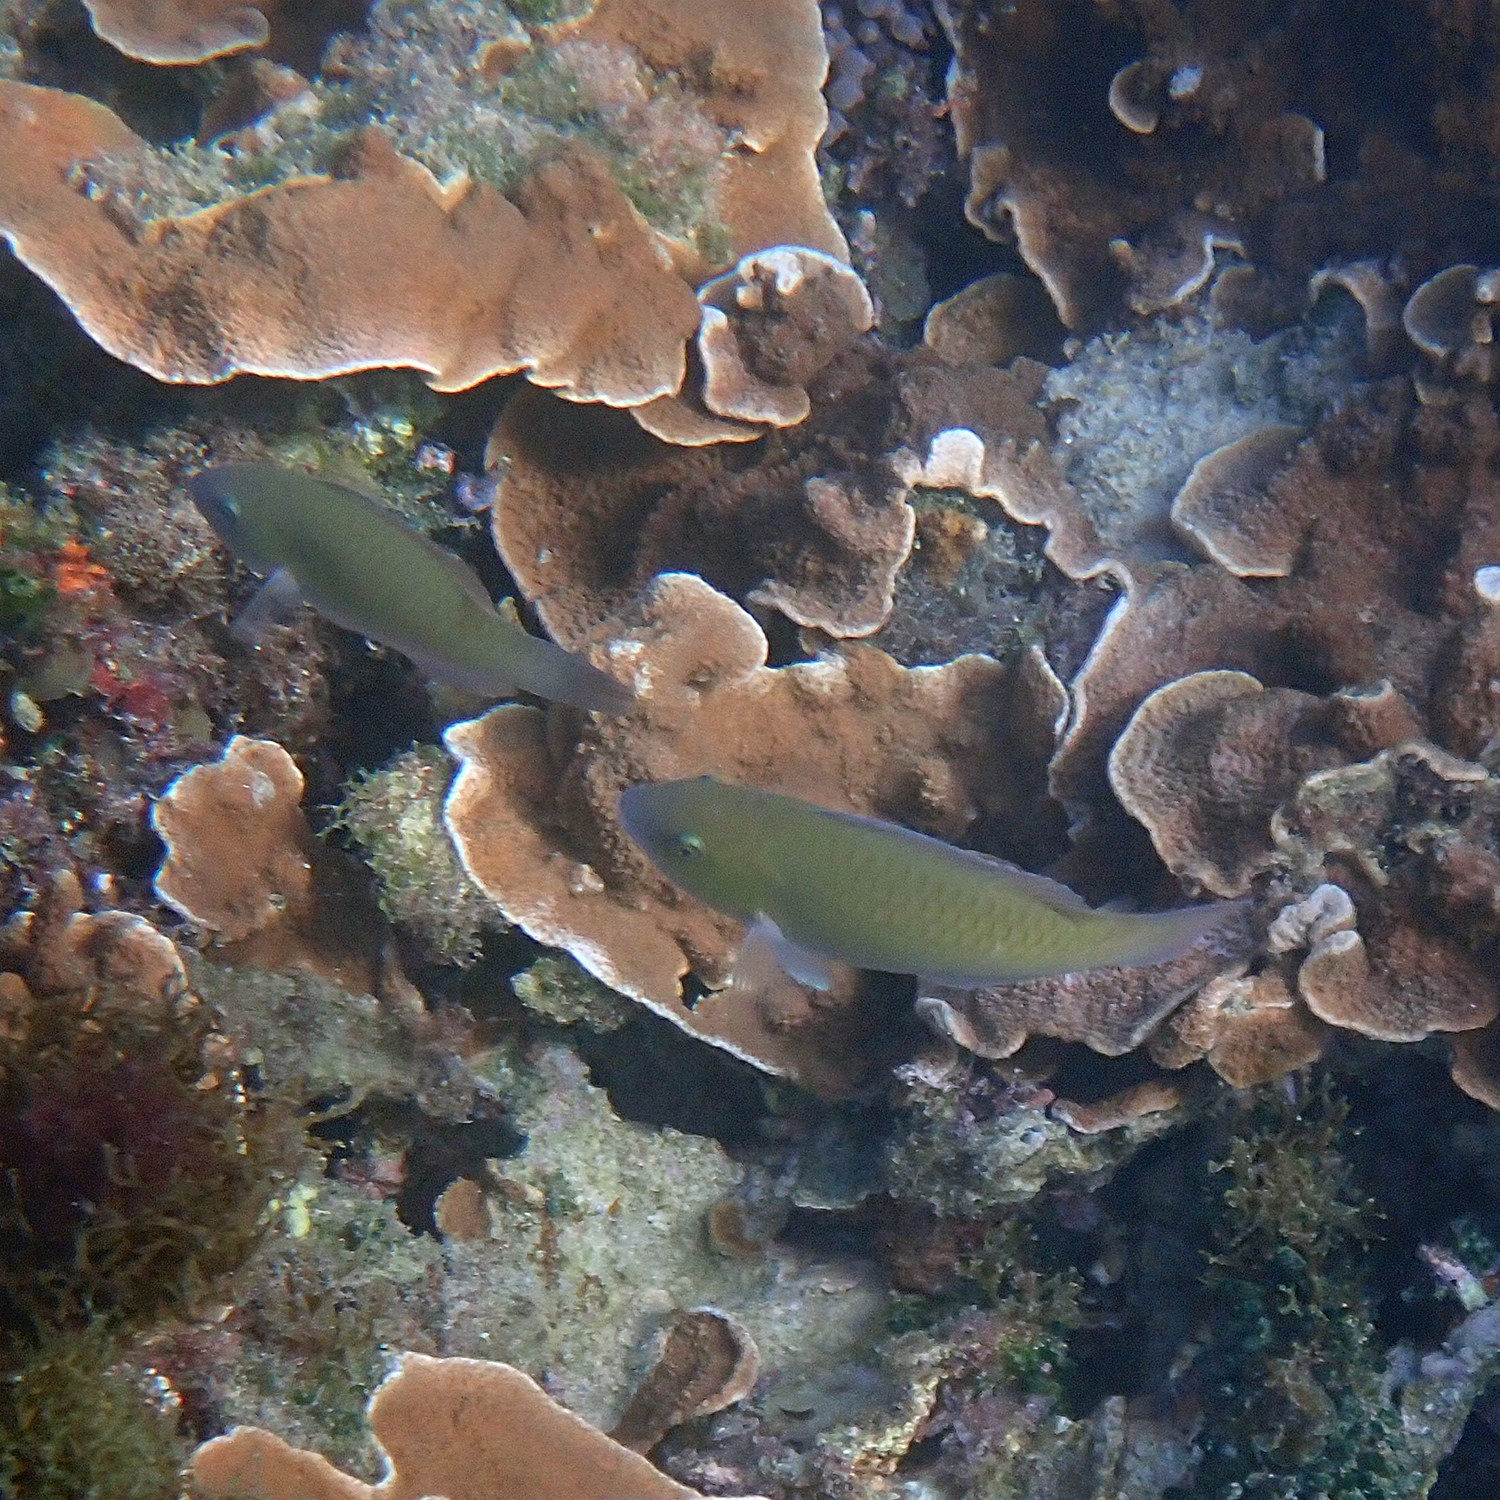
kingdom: Animalia
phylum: Chordata
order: Perciformes
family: Scaridae
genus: Scarus
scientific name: Scarus rivulatus
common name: Surf parrotfish
